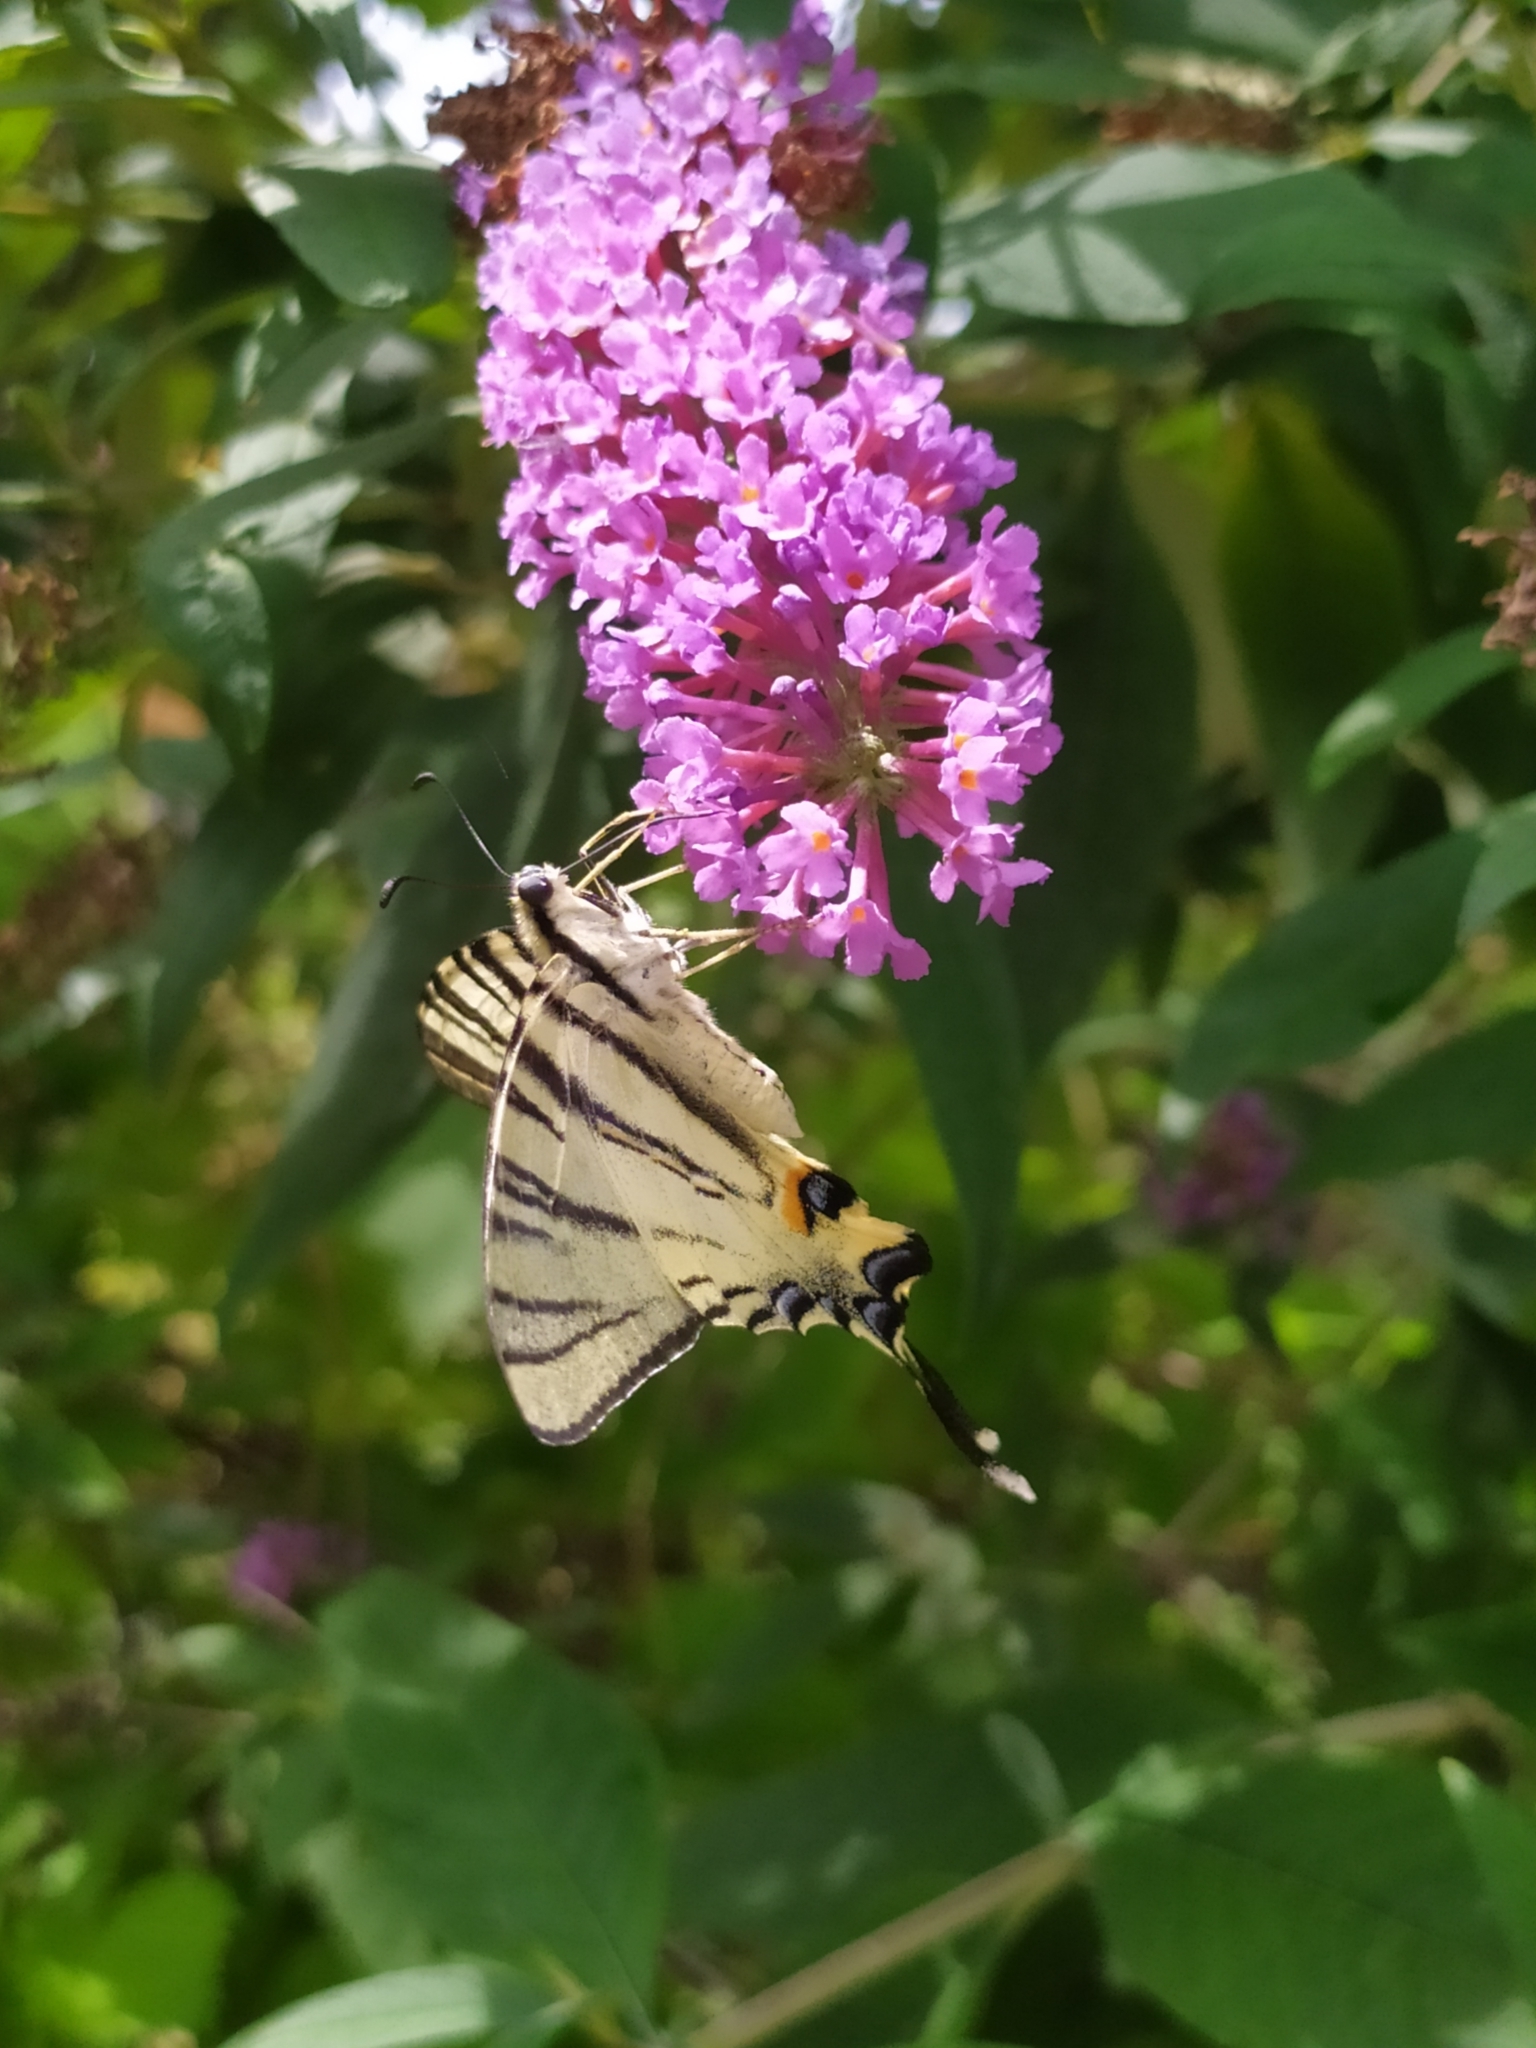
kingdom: Animalia
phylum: Arthropoda
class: Insecta
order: Lepidoptera
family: Papilionidae
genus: Iphiclides
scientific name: Iphiclides podalirius
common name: Scarce swallowtail
